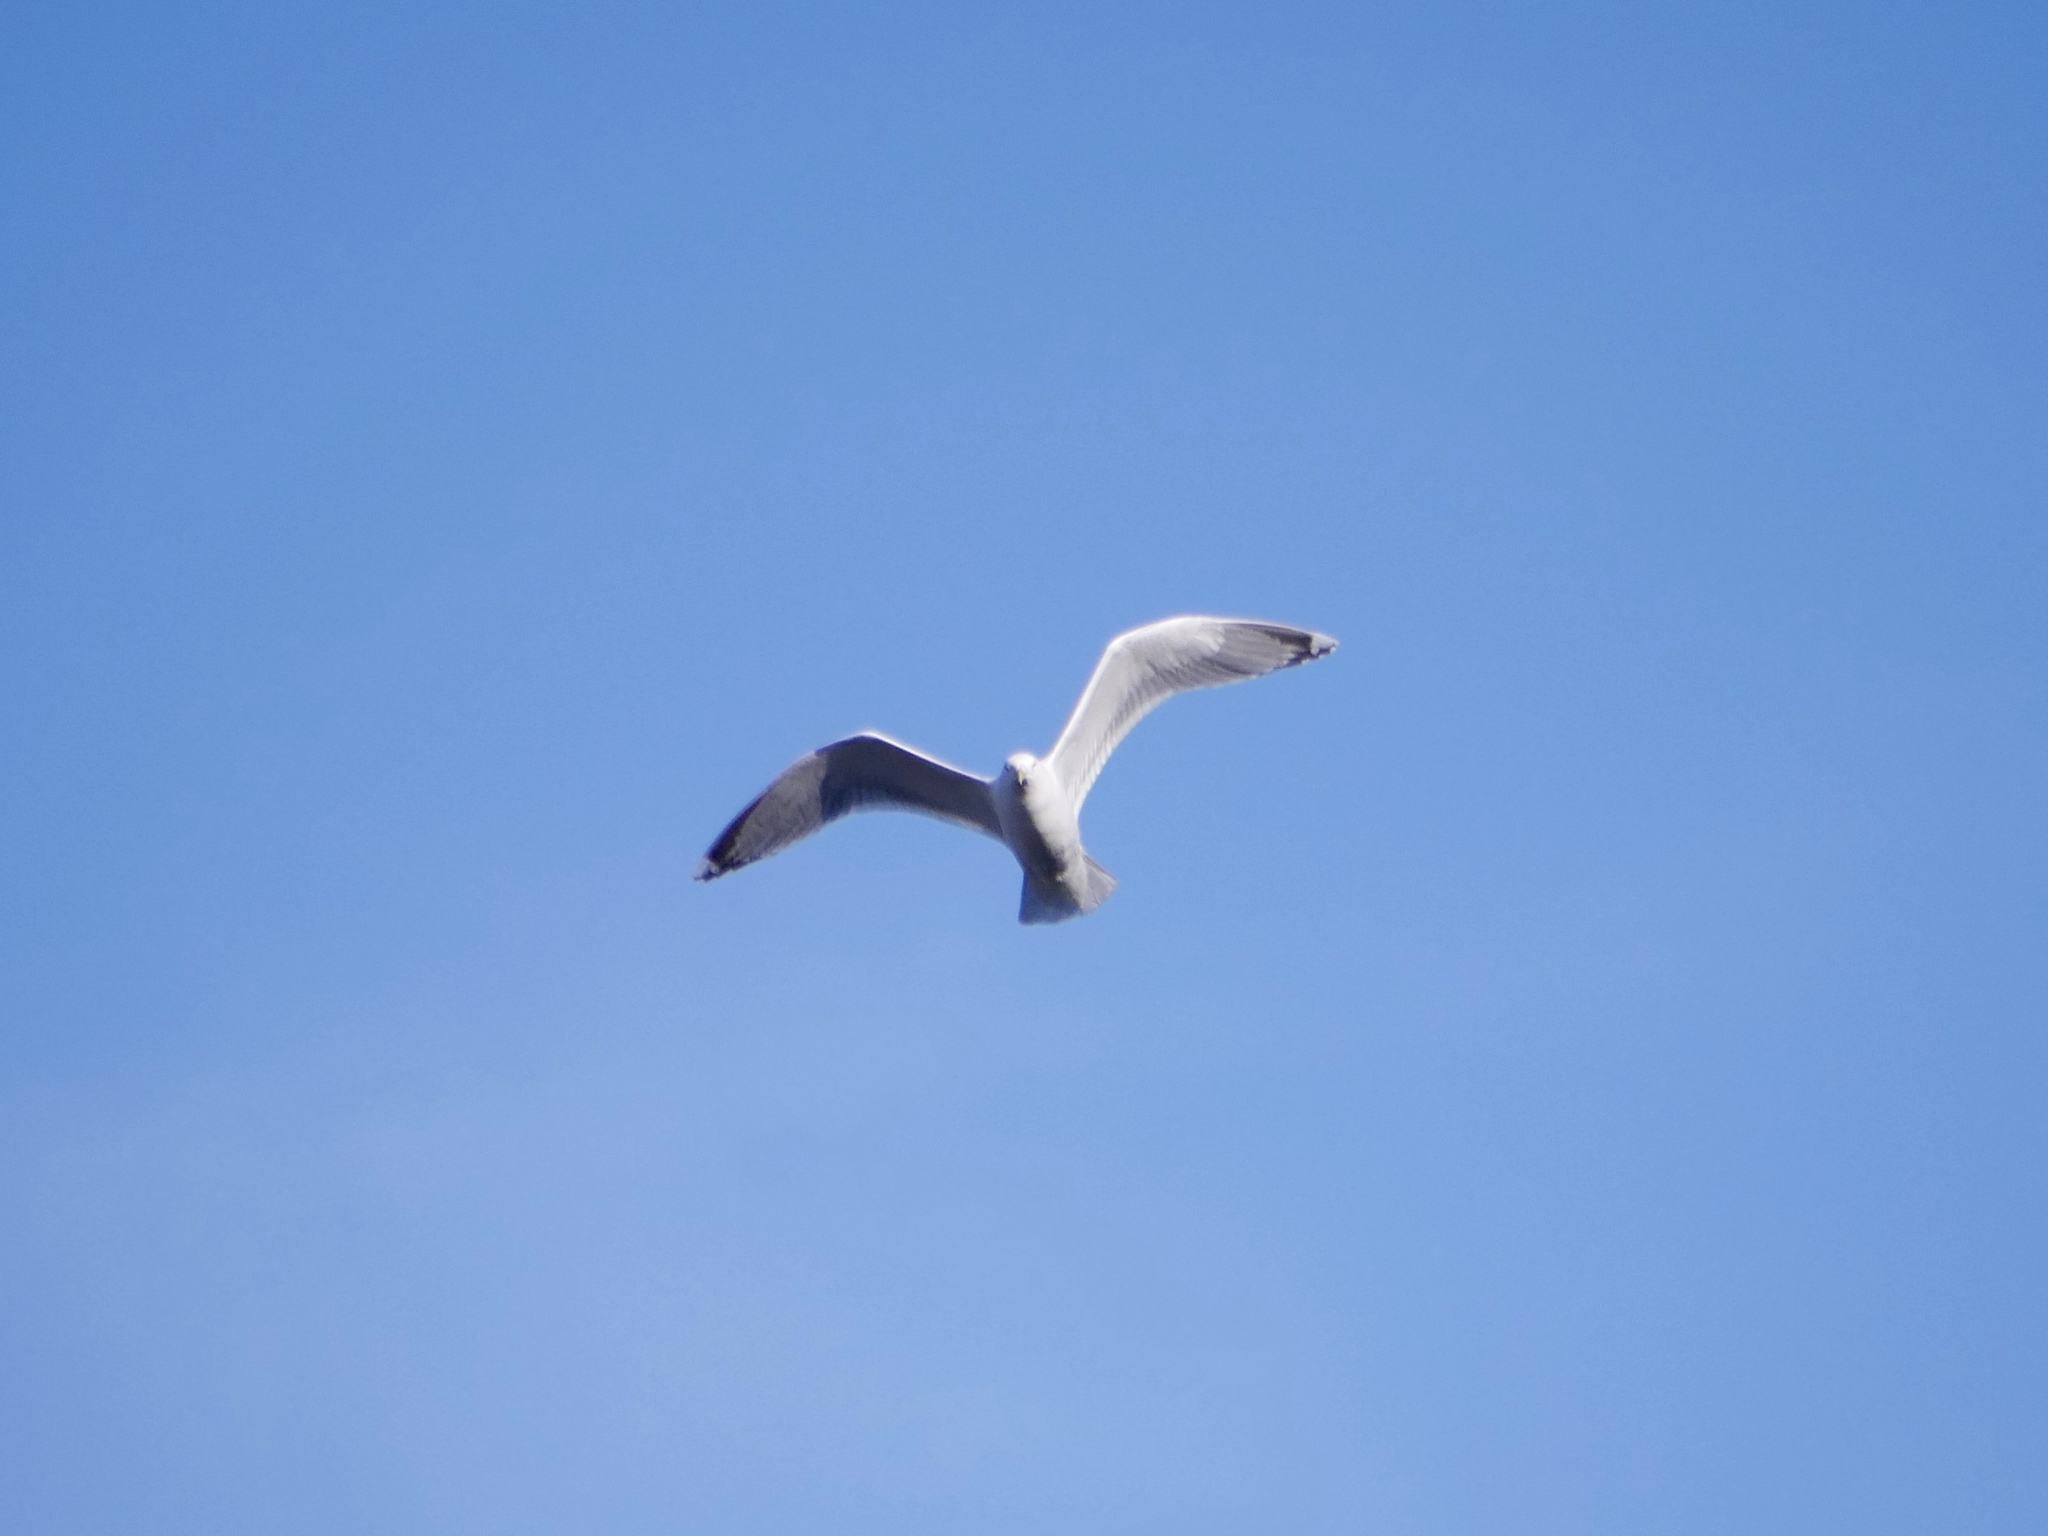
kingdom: Animalia
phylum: Chordata
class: Aves
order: Charadriiformes
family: Laridae
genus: Larus
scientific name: Larus argentatus
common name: Herring gull
